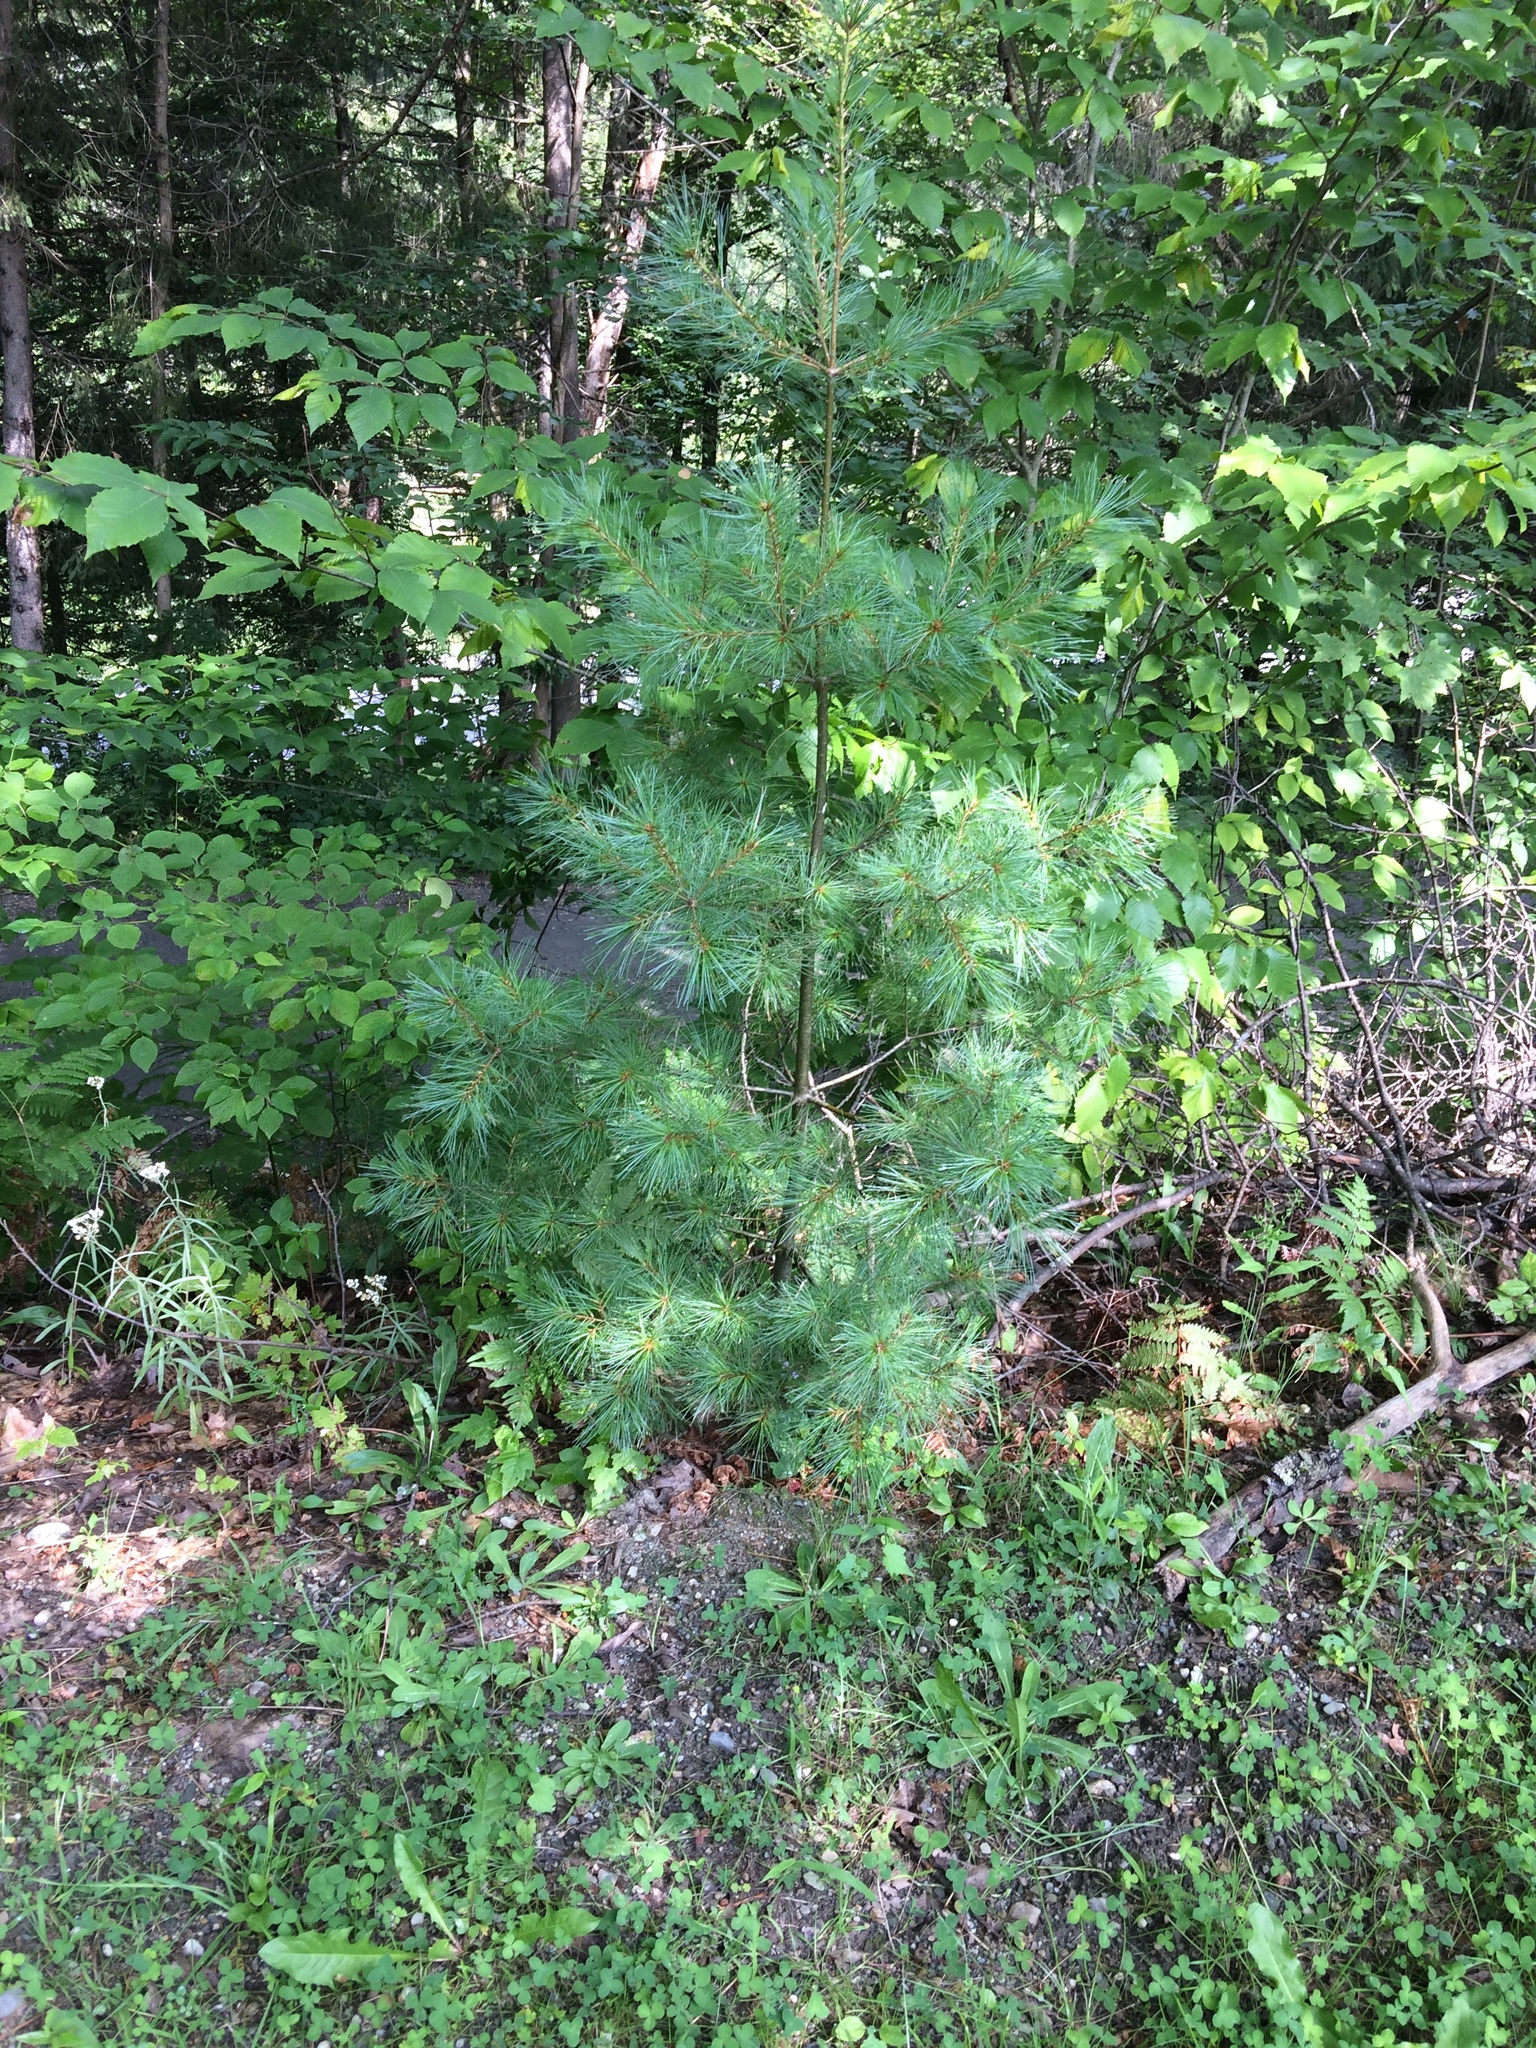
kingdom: Plantae
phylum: Tracheophyta
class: Pinopsida
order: Pinales
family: Pinaceae
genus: Pinus
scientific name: Pinus strobus
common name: Weymouth pine
